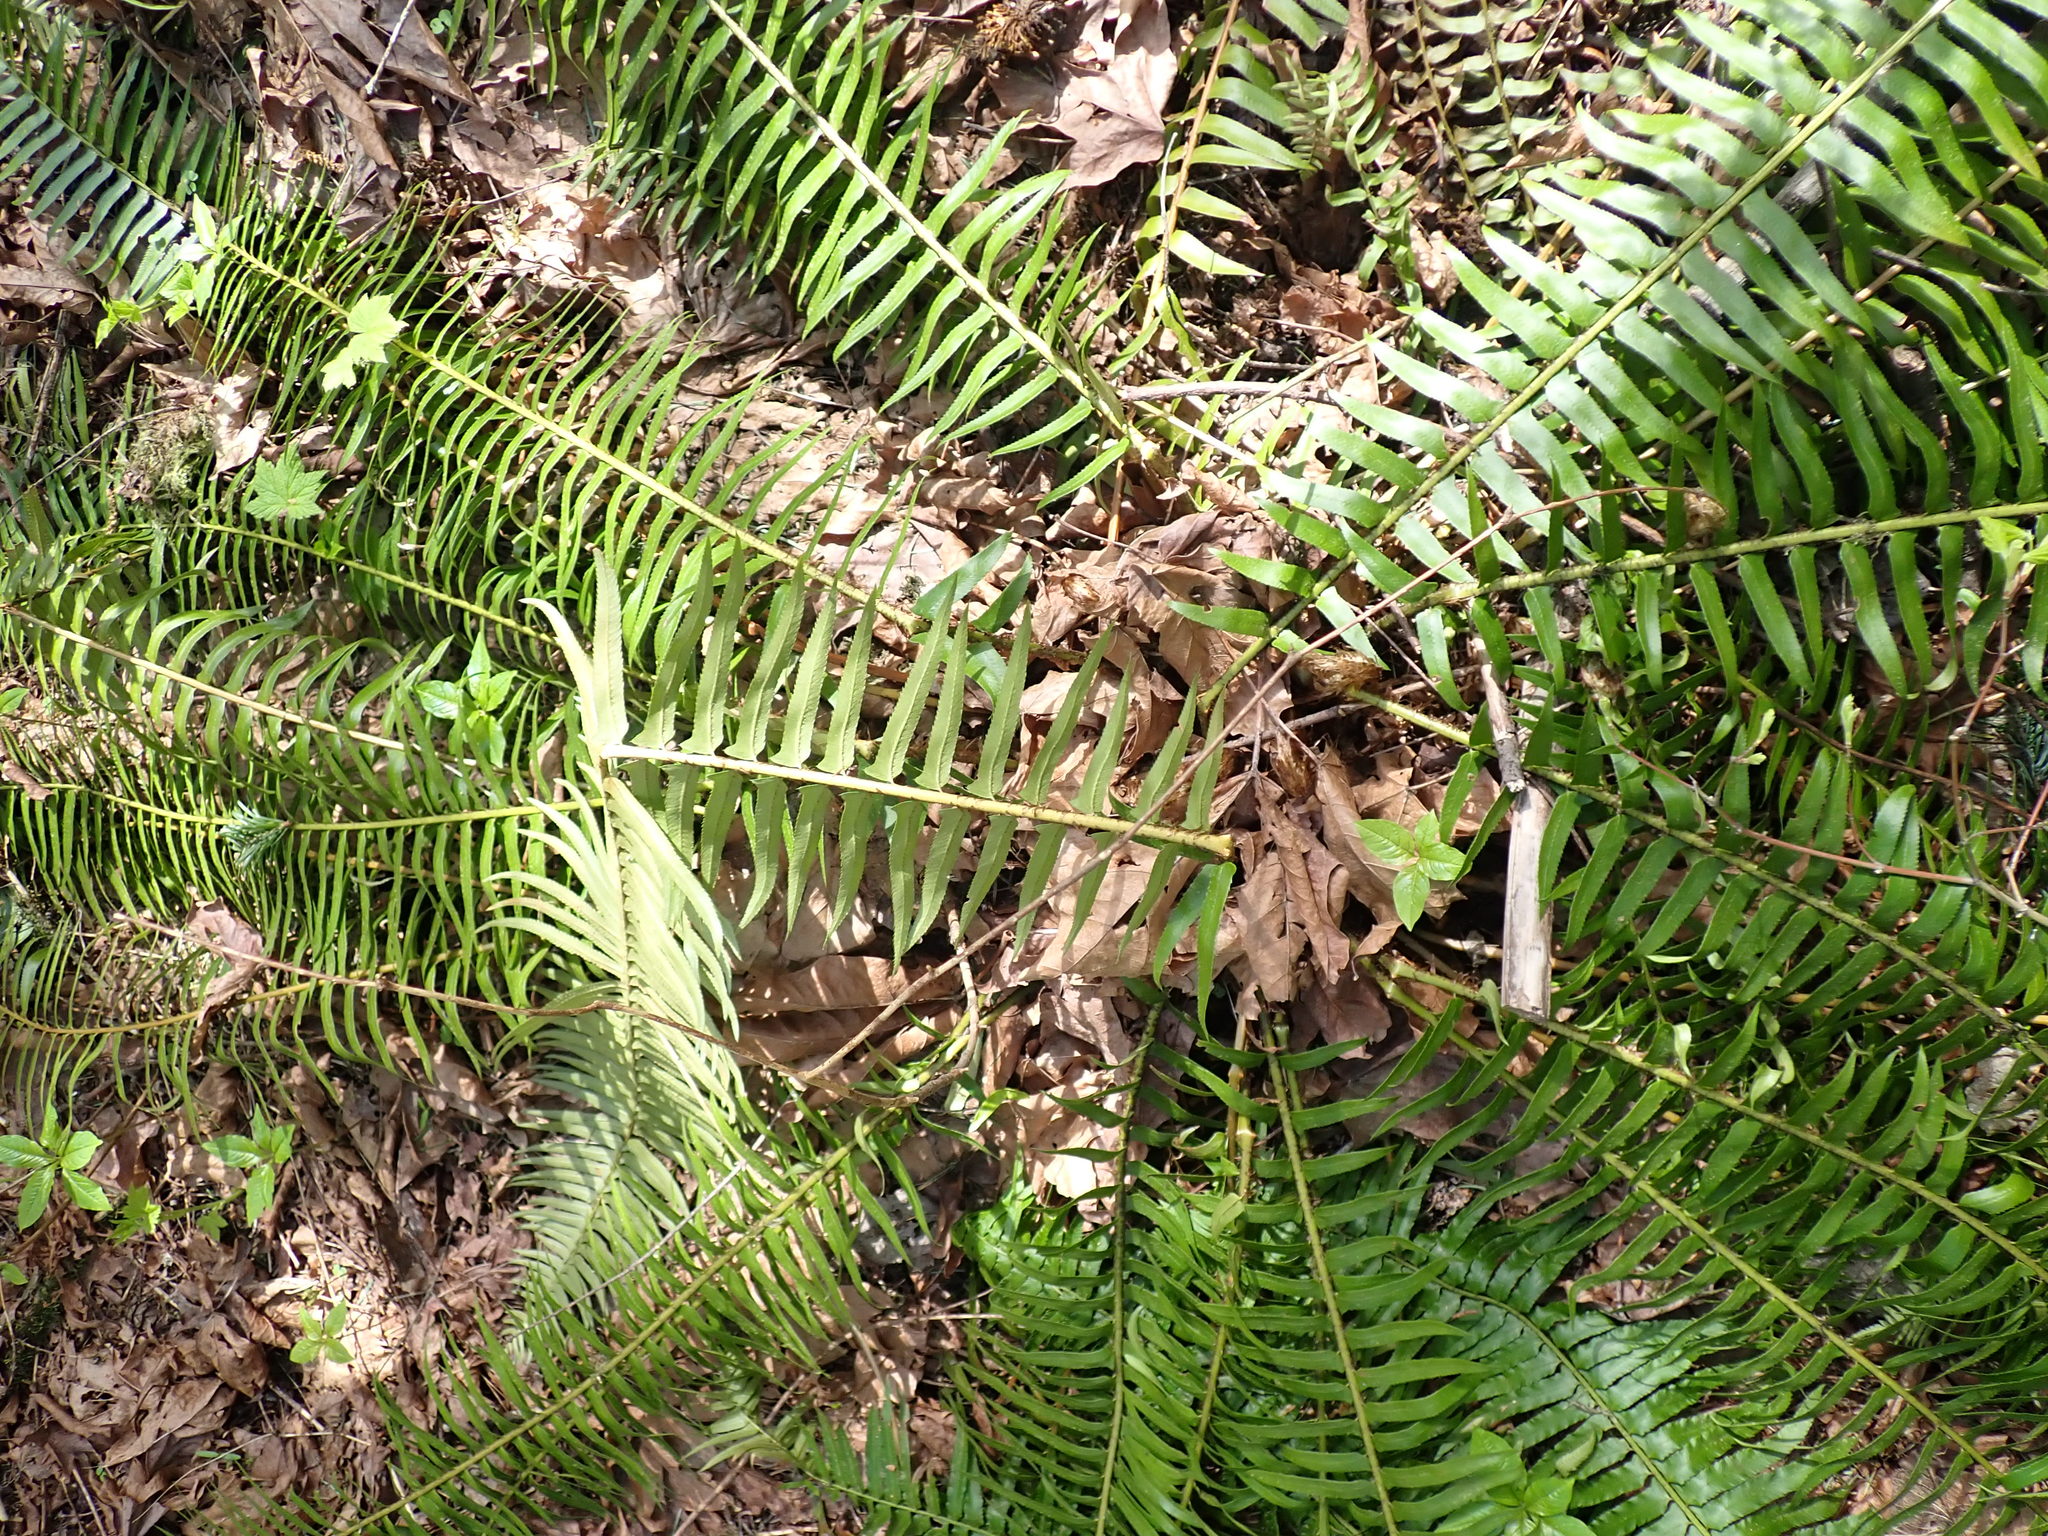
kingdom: Plantae
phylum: Tracheophyta
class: Polypodiopsida
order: Polypodiales
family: Dryopteridaceae
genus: Polystichum
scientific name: Polystichum munitum
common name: Western sword-fern
